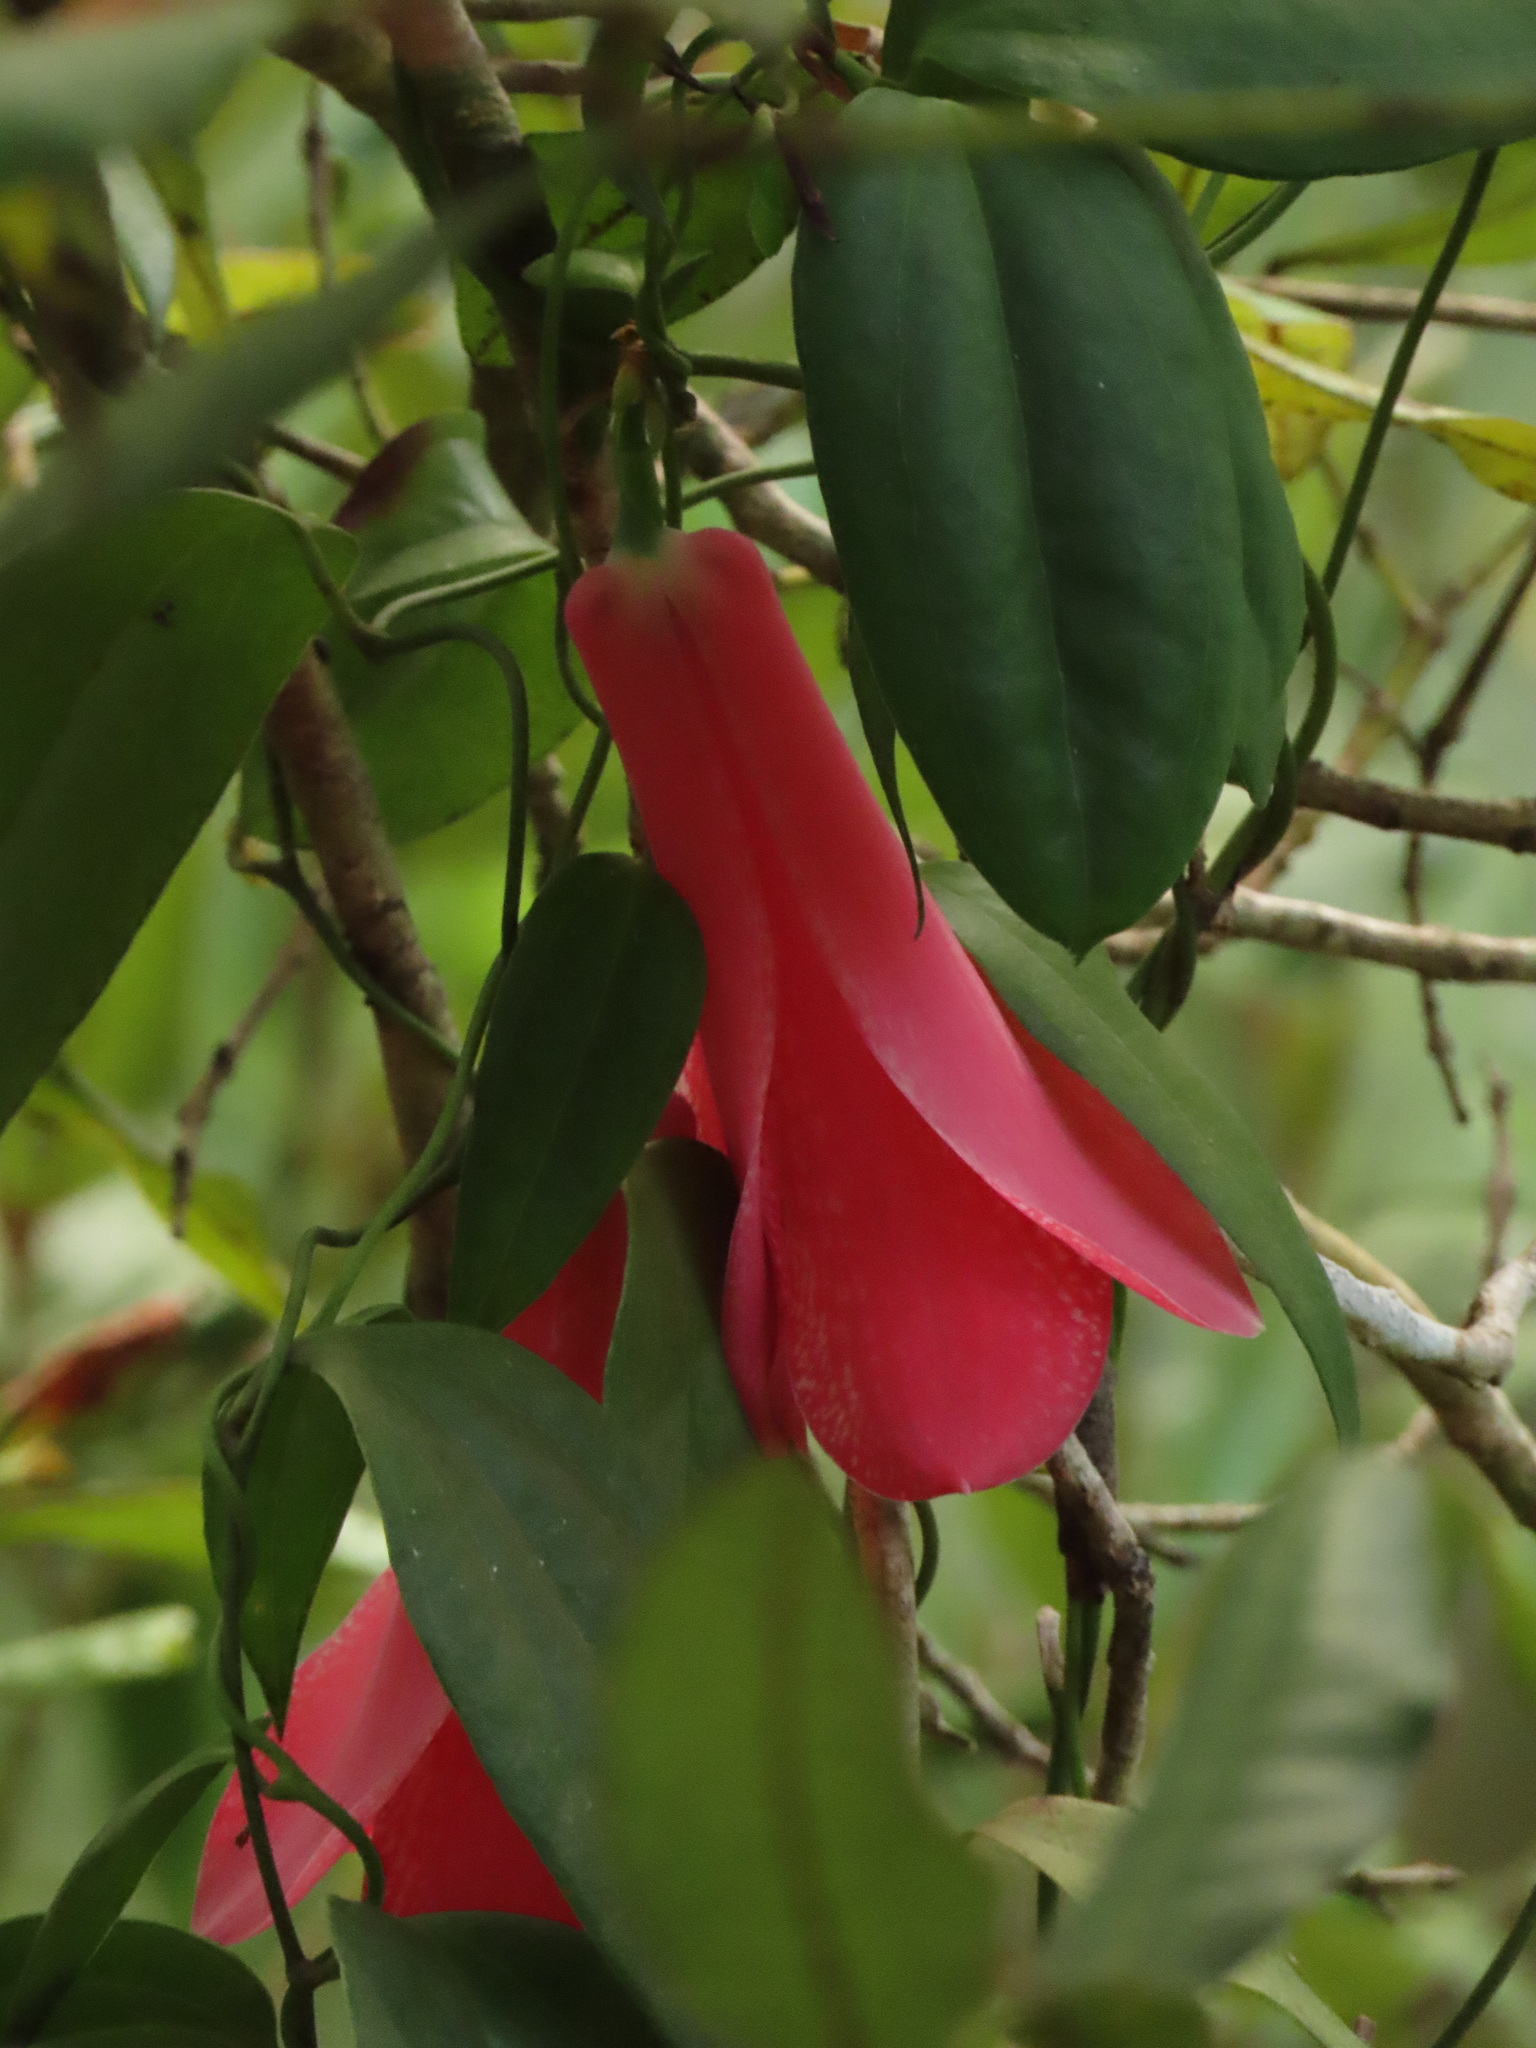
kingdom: Plantae
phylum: Tracheophyta
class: Liliopsida
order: Liliales
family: Philesiaceae
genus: Lapageria
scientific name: Lapageria rosea
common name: Chilean-bellflower
